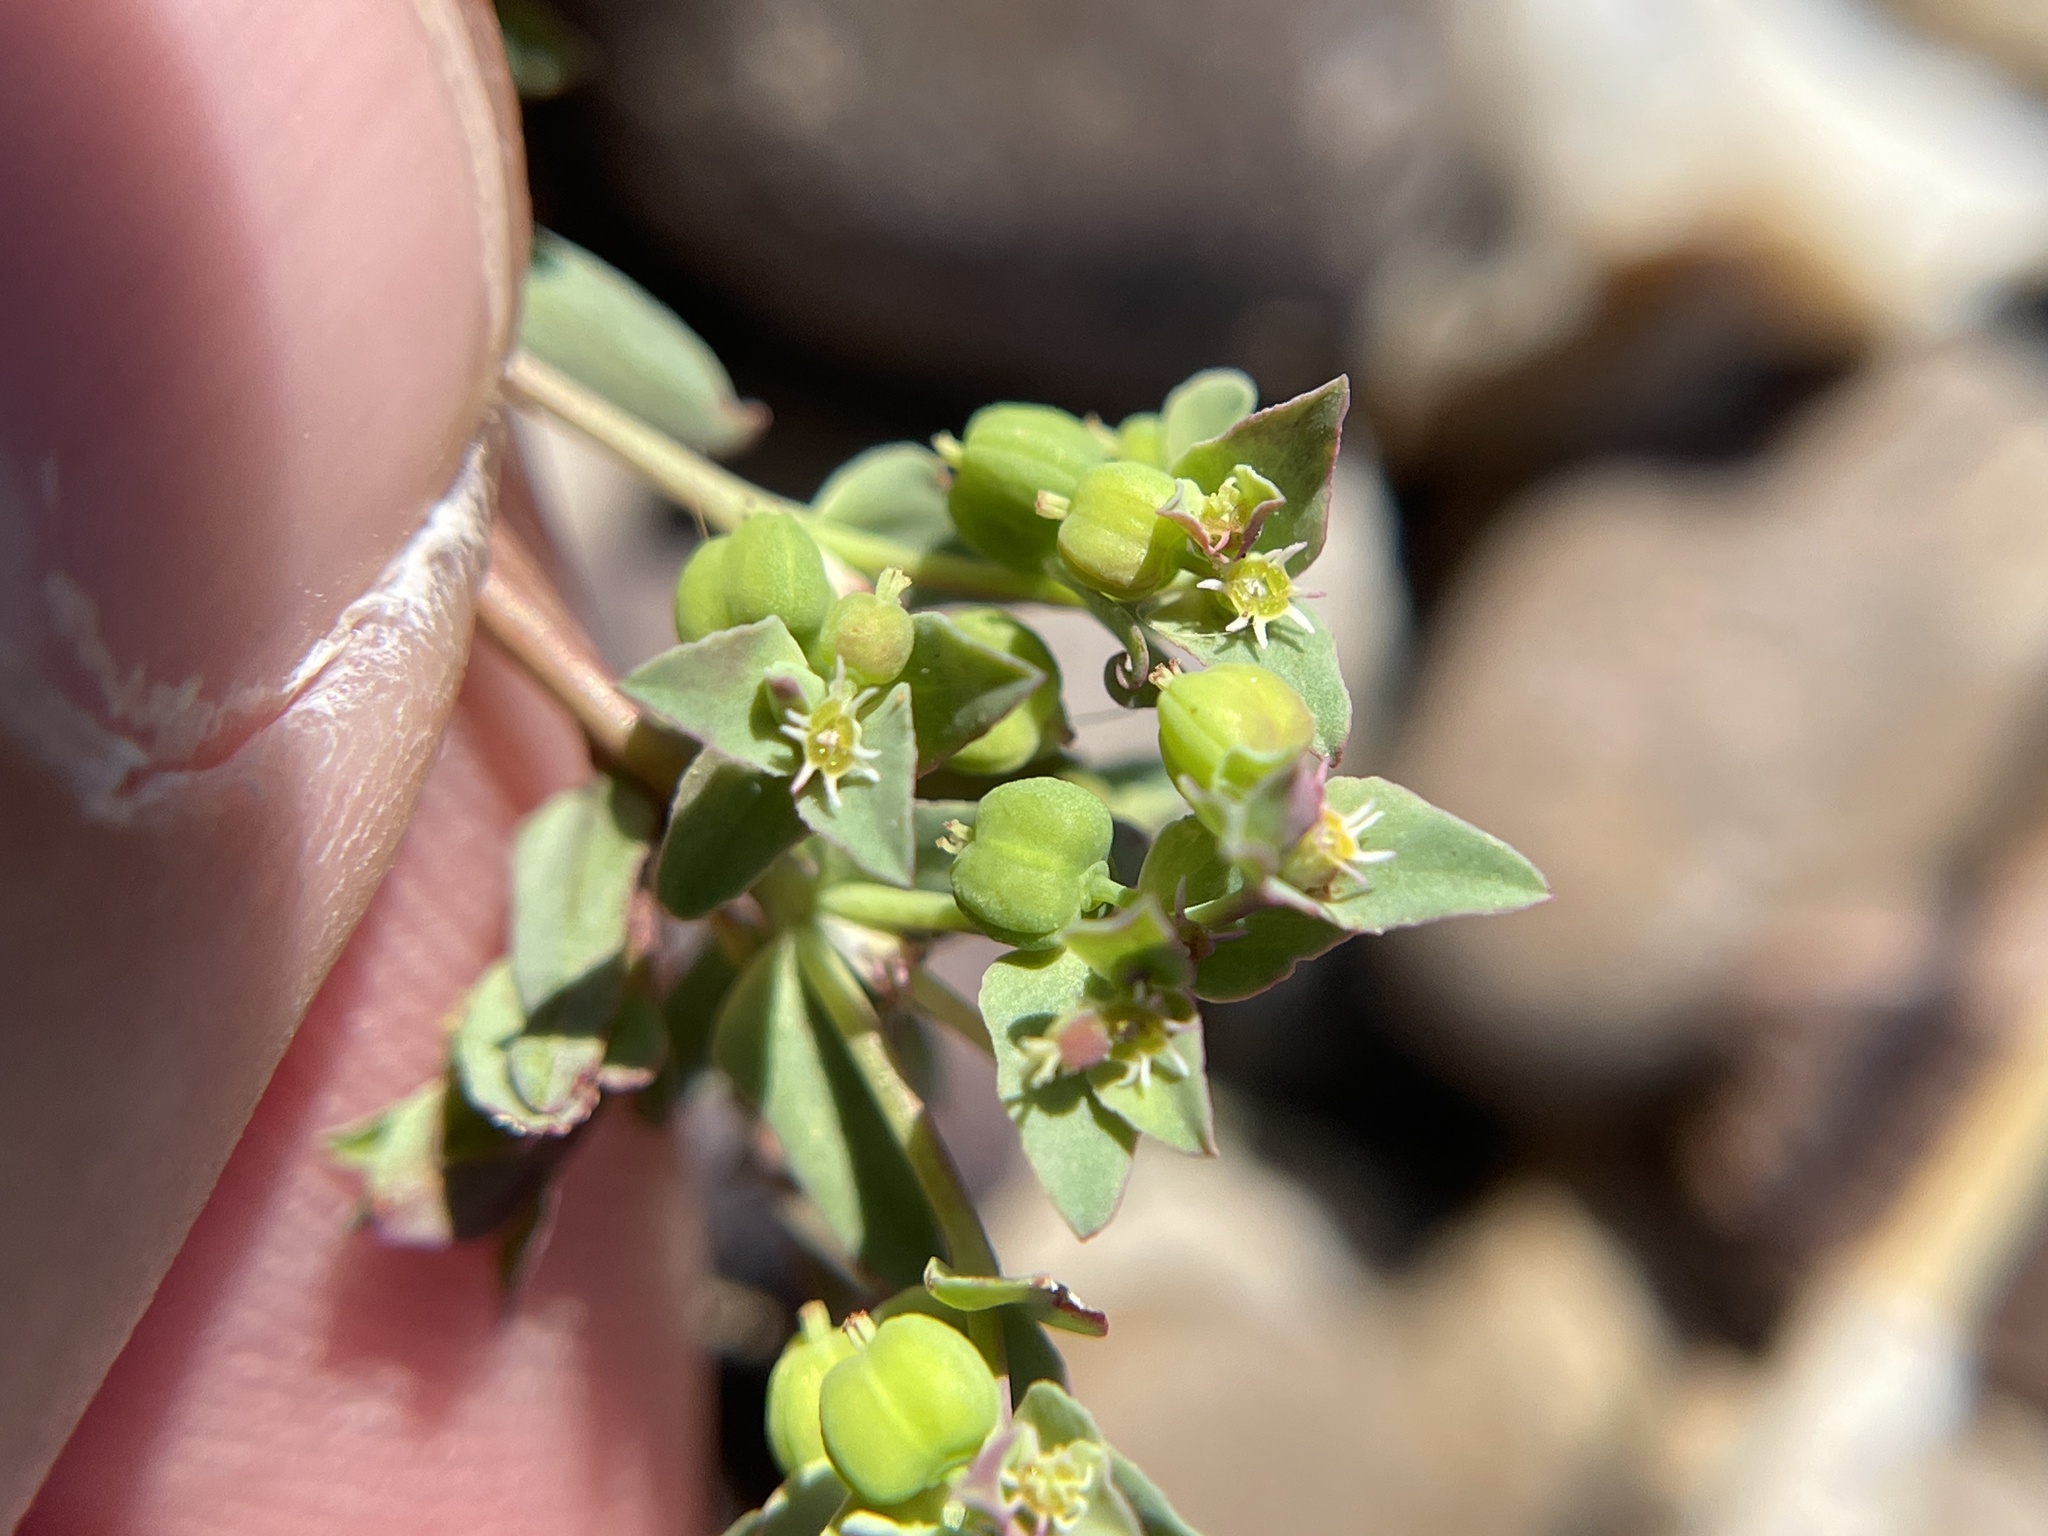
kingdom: Plantae
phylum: Tracheophyta
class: Magnoliopsida
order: Malpighiales
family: Euphorbiaceae
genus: Euphorbia
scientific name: Euphorbia peplidion
